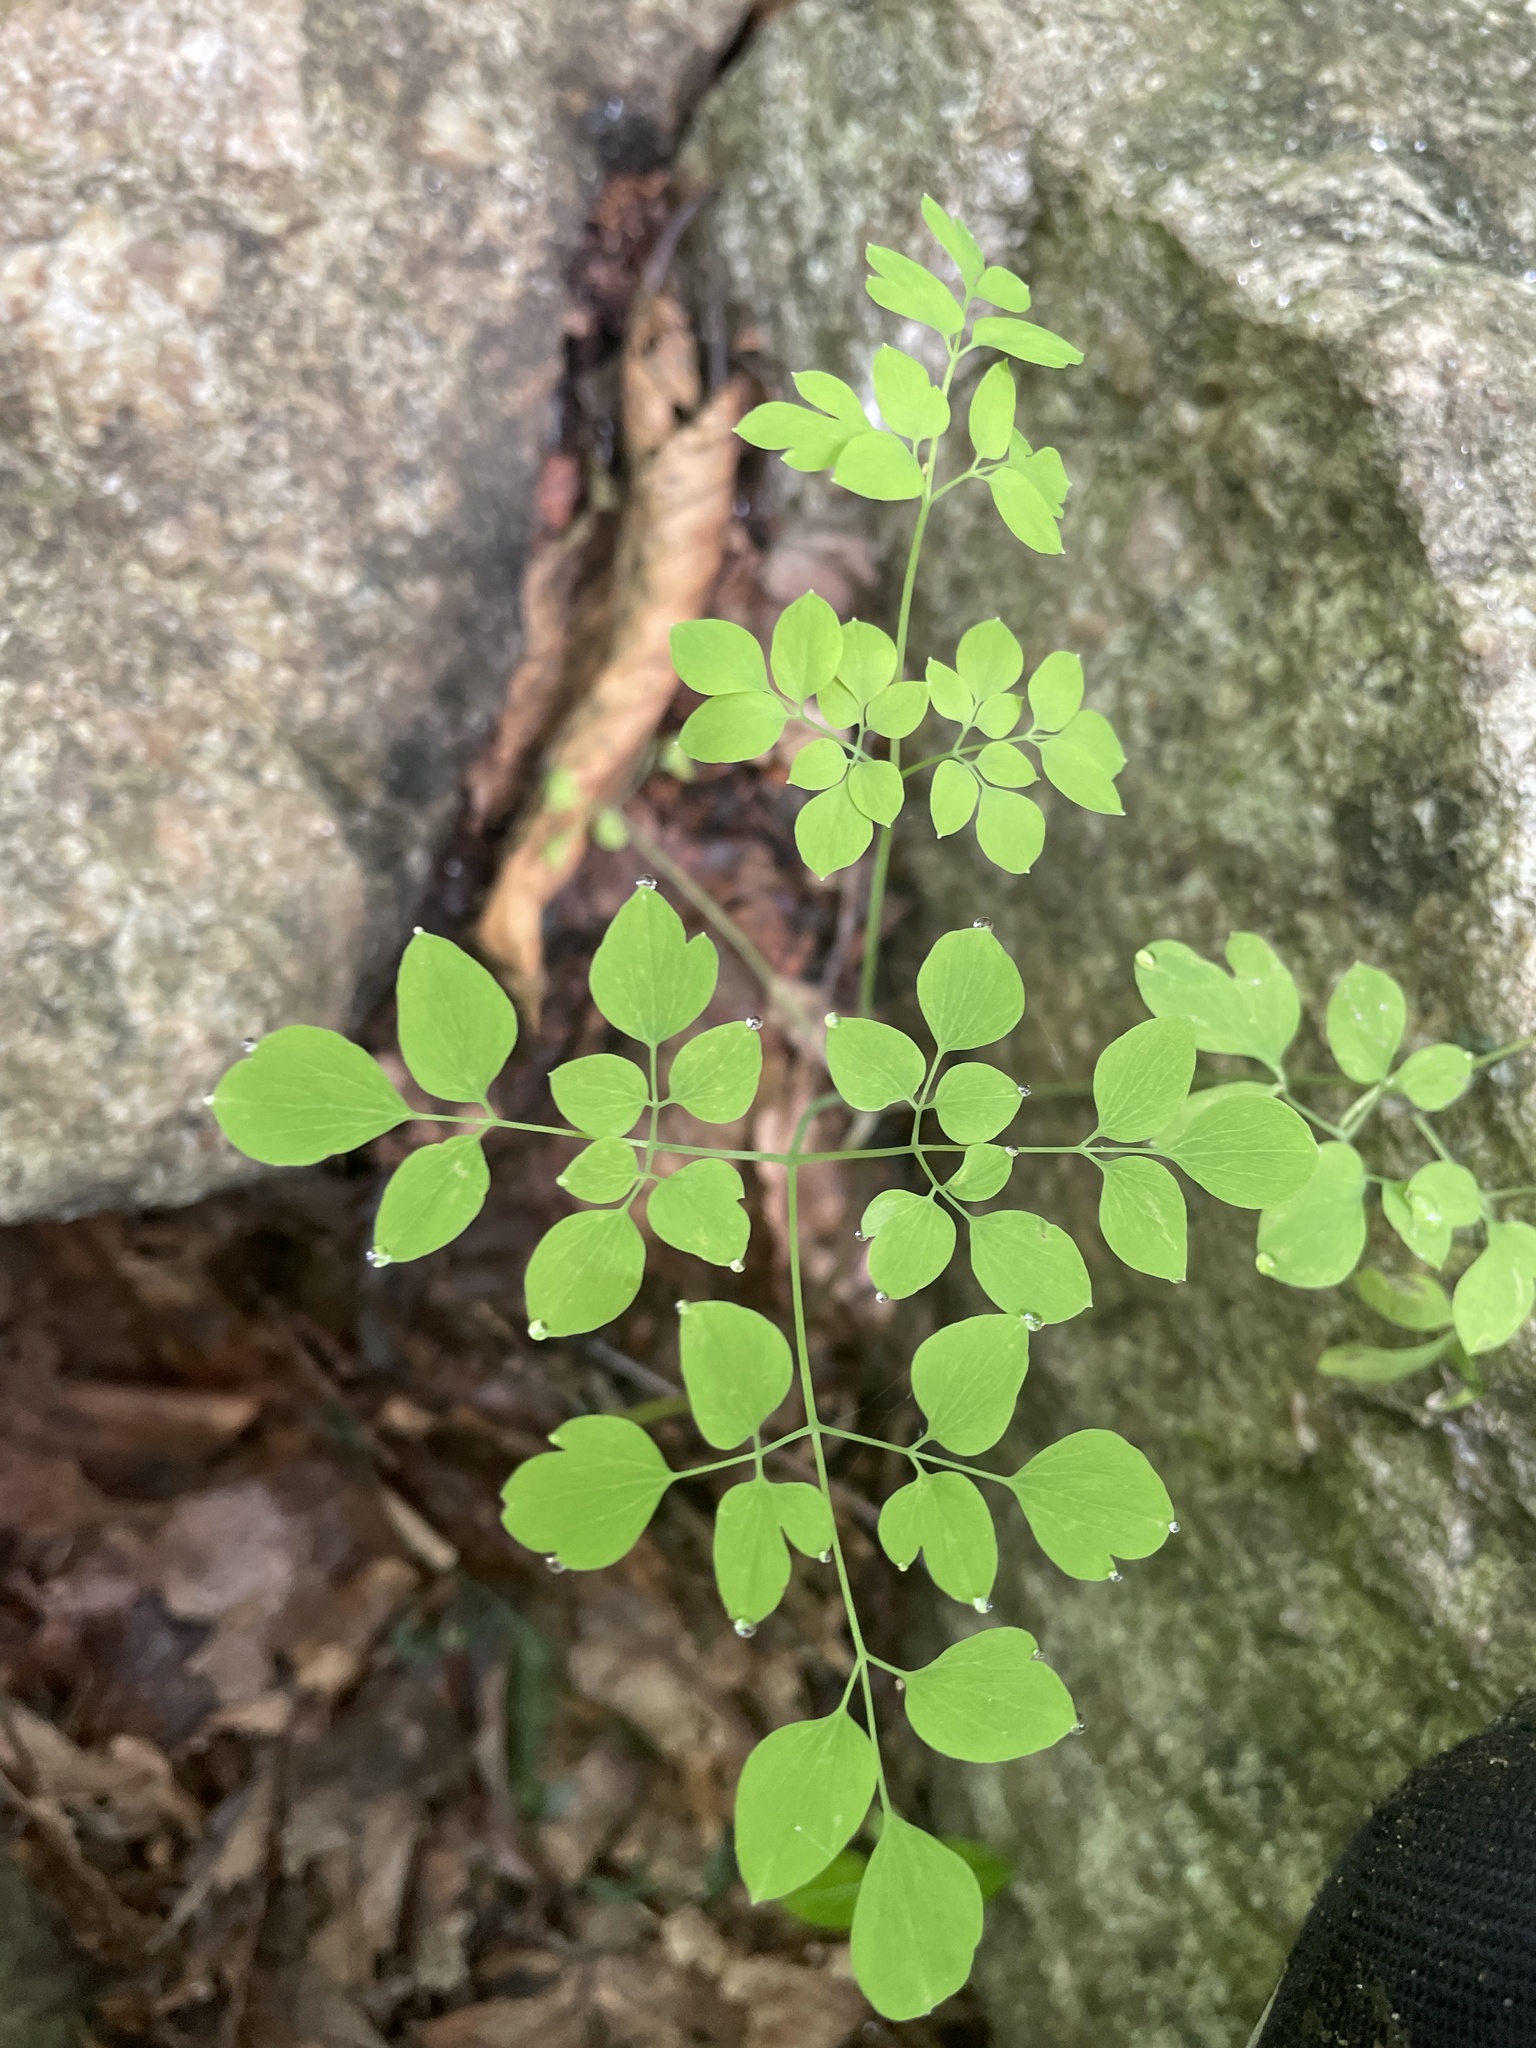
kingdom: Plantae
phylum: Tracheophyta
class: Magnoliopsida
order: Ranunculales
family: Papaveraceae
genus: Adlumia
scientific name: Adlumia fungosa
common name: Mountain-fringe
